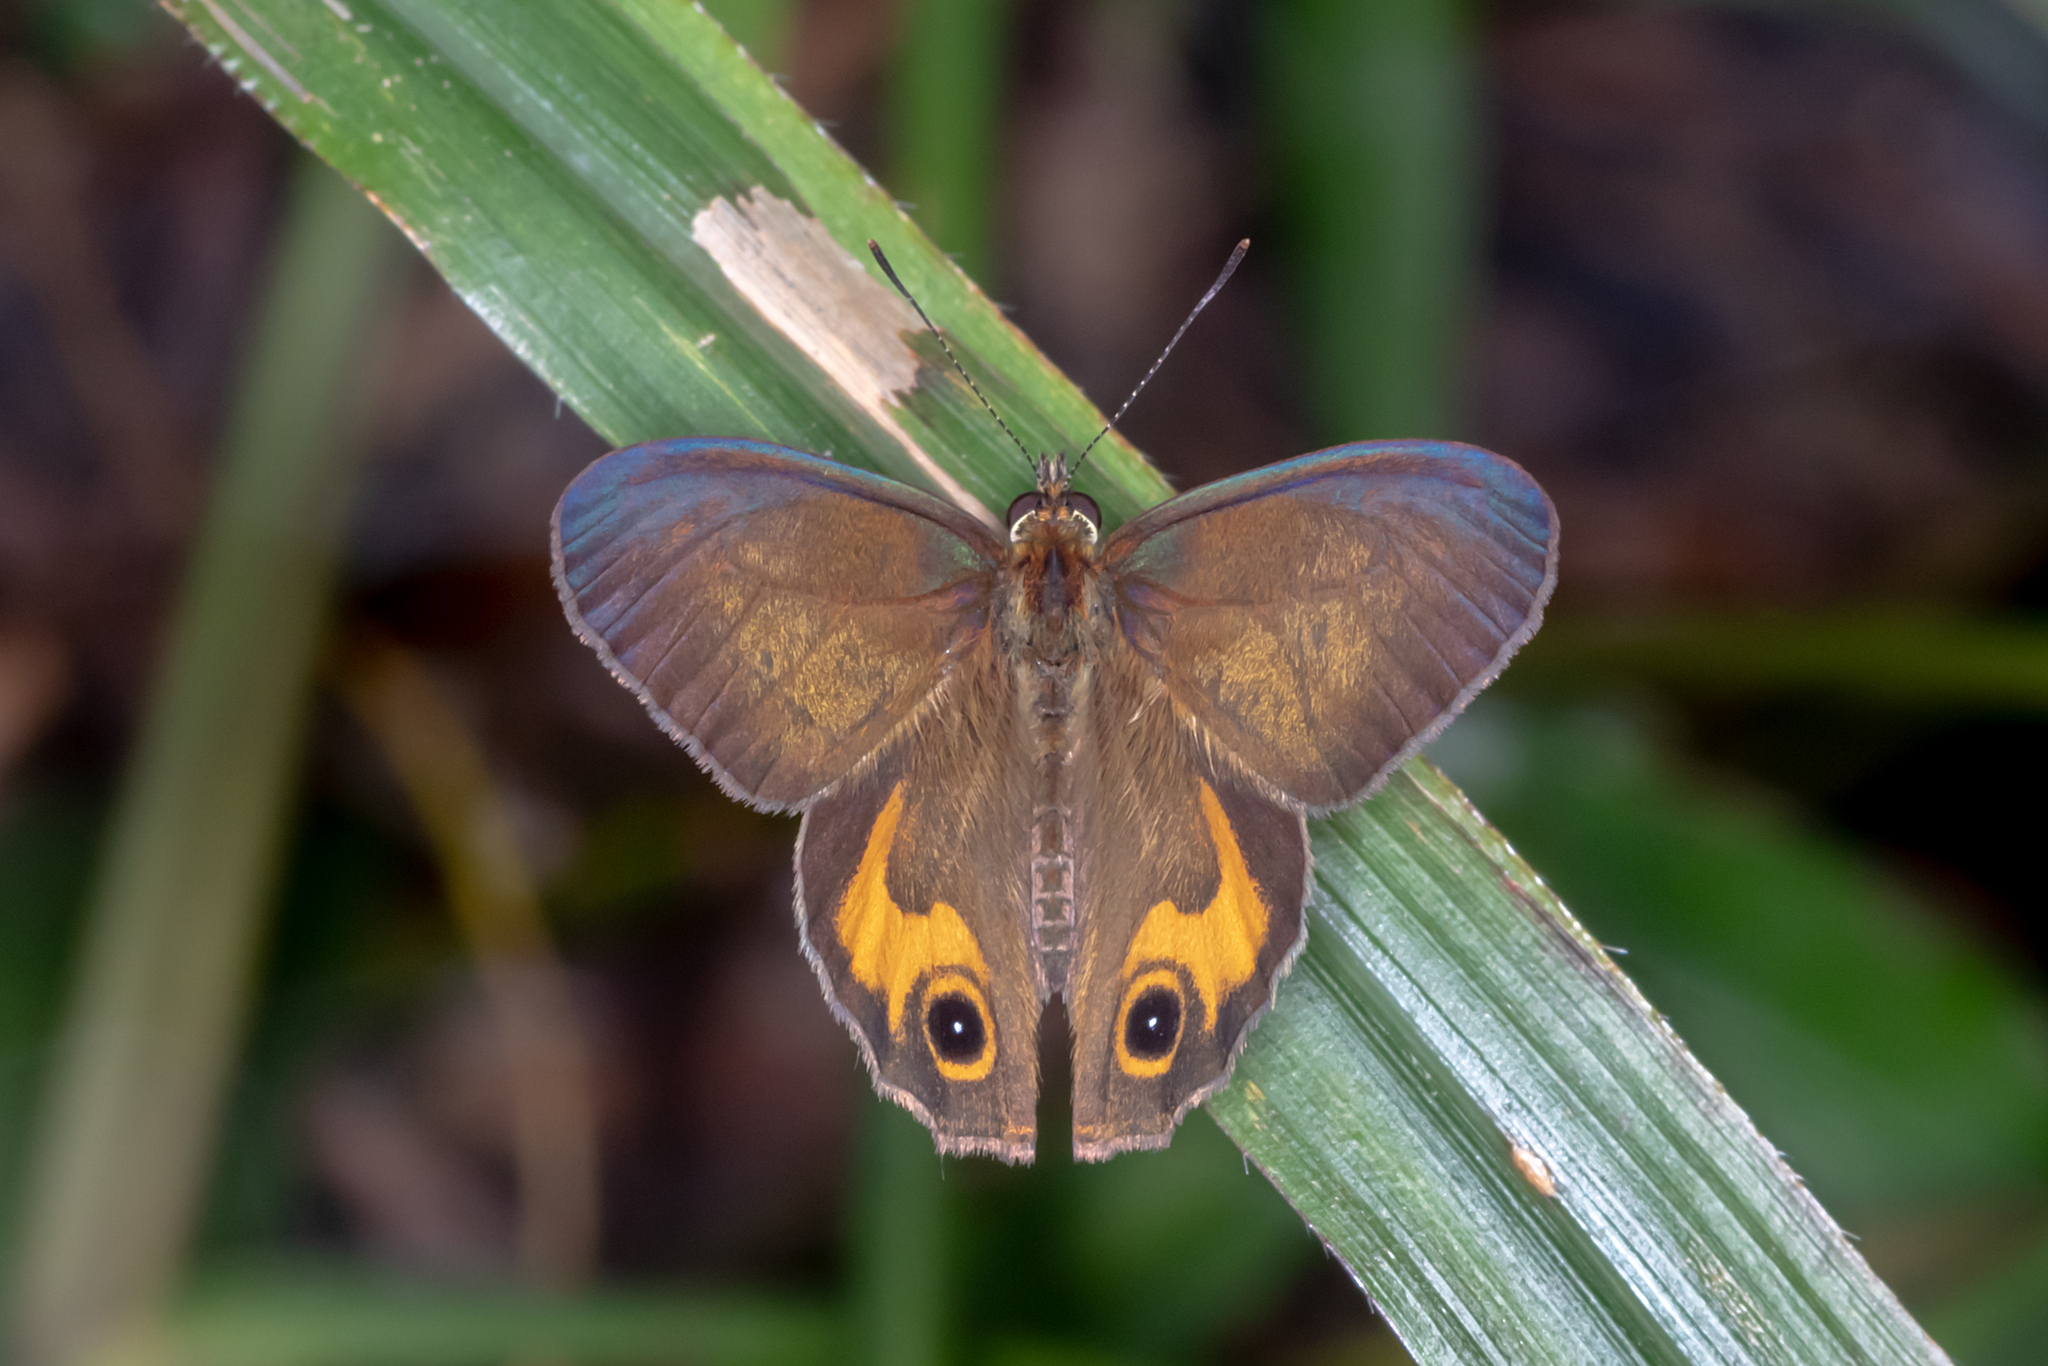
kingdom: Animalia
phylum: Arthropoda
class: Insecta
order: Lepidoptera
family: Nymphalidae
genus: Hypocysta
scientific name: Hypocysta metirius
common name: Brown ringlet
